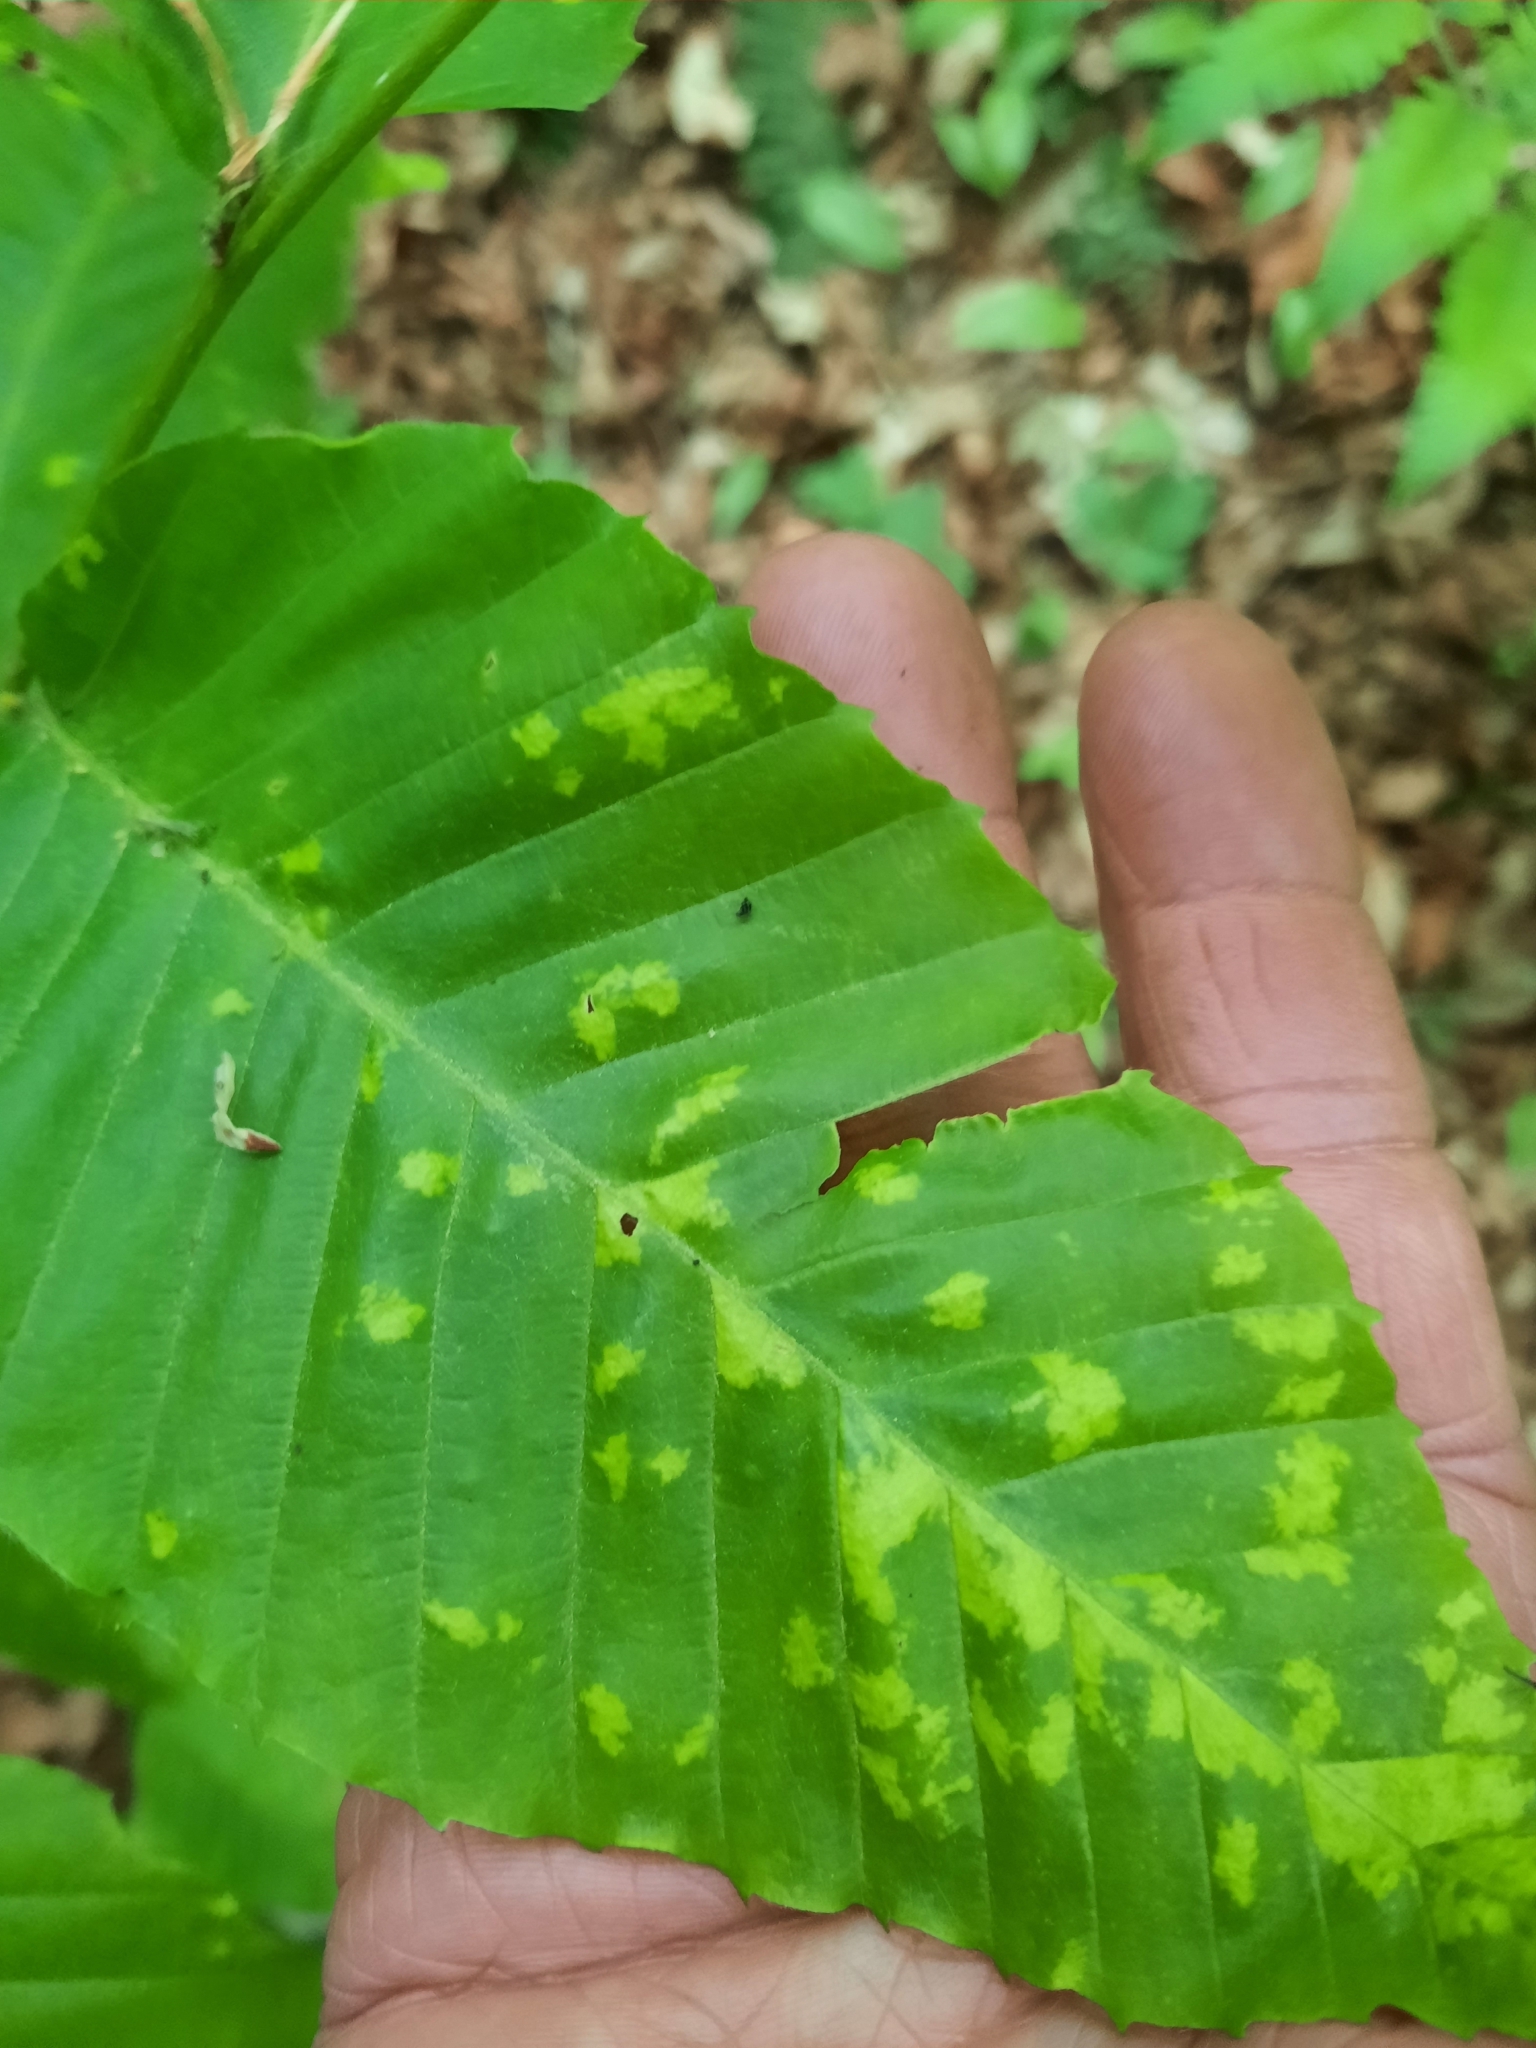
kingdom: Animalia
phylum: Arthropoda
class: Arachnida
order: Trombidiformes
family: Eriophyidae
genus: Acalitus
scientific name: Acalitus
